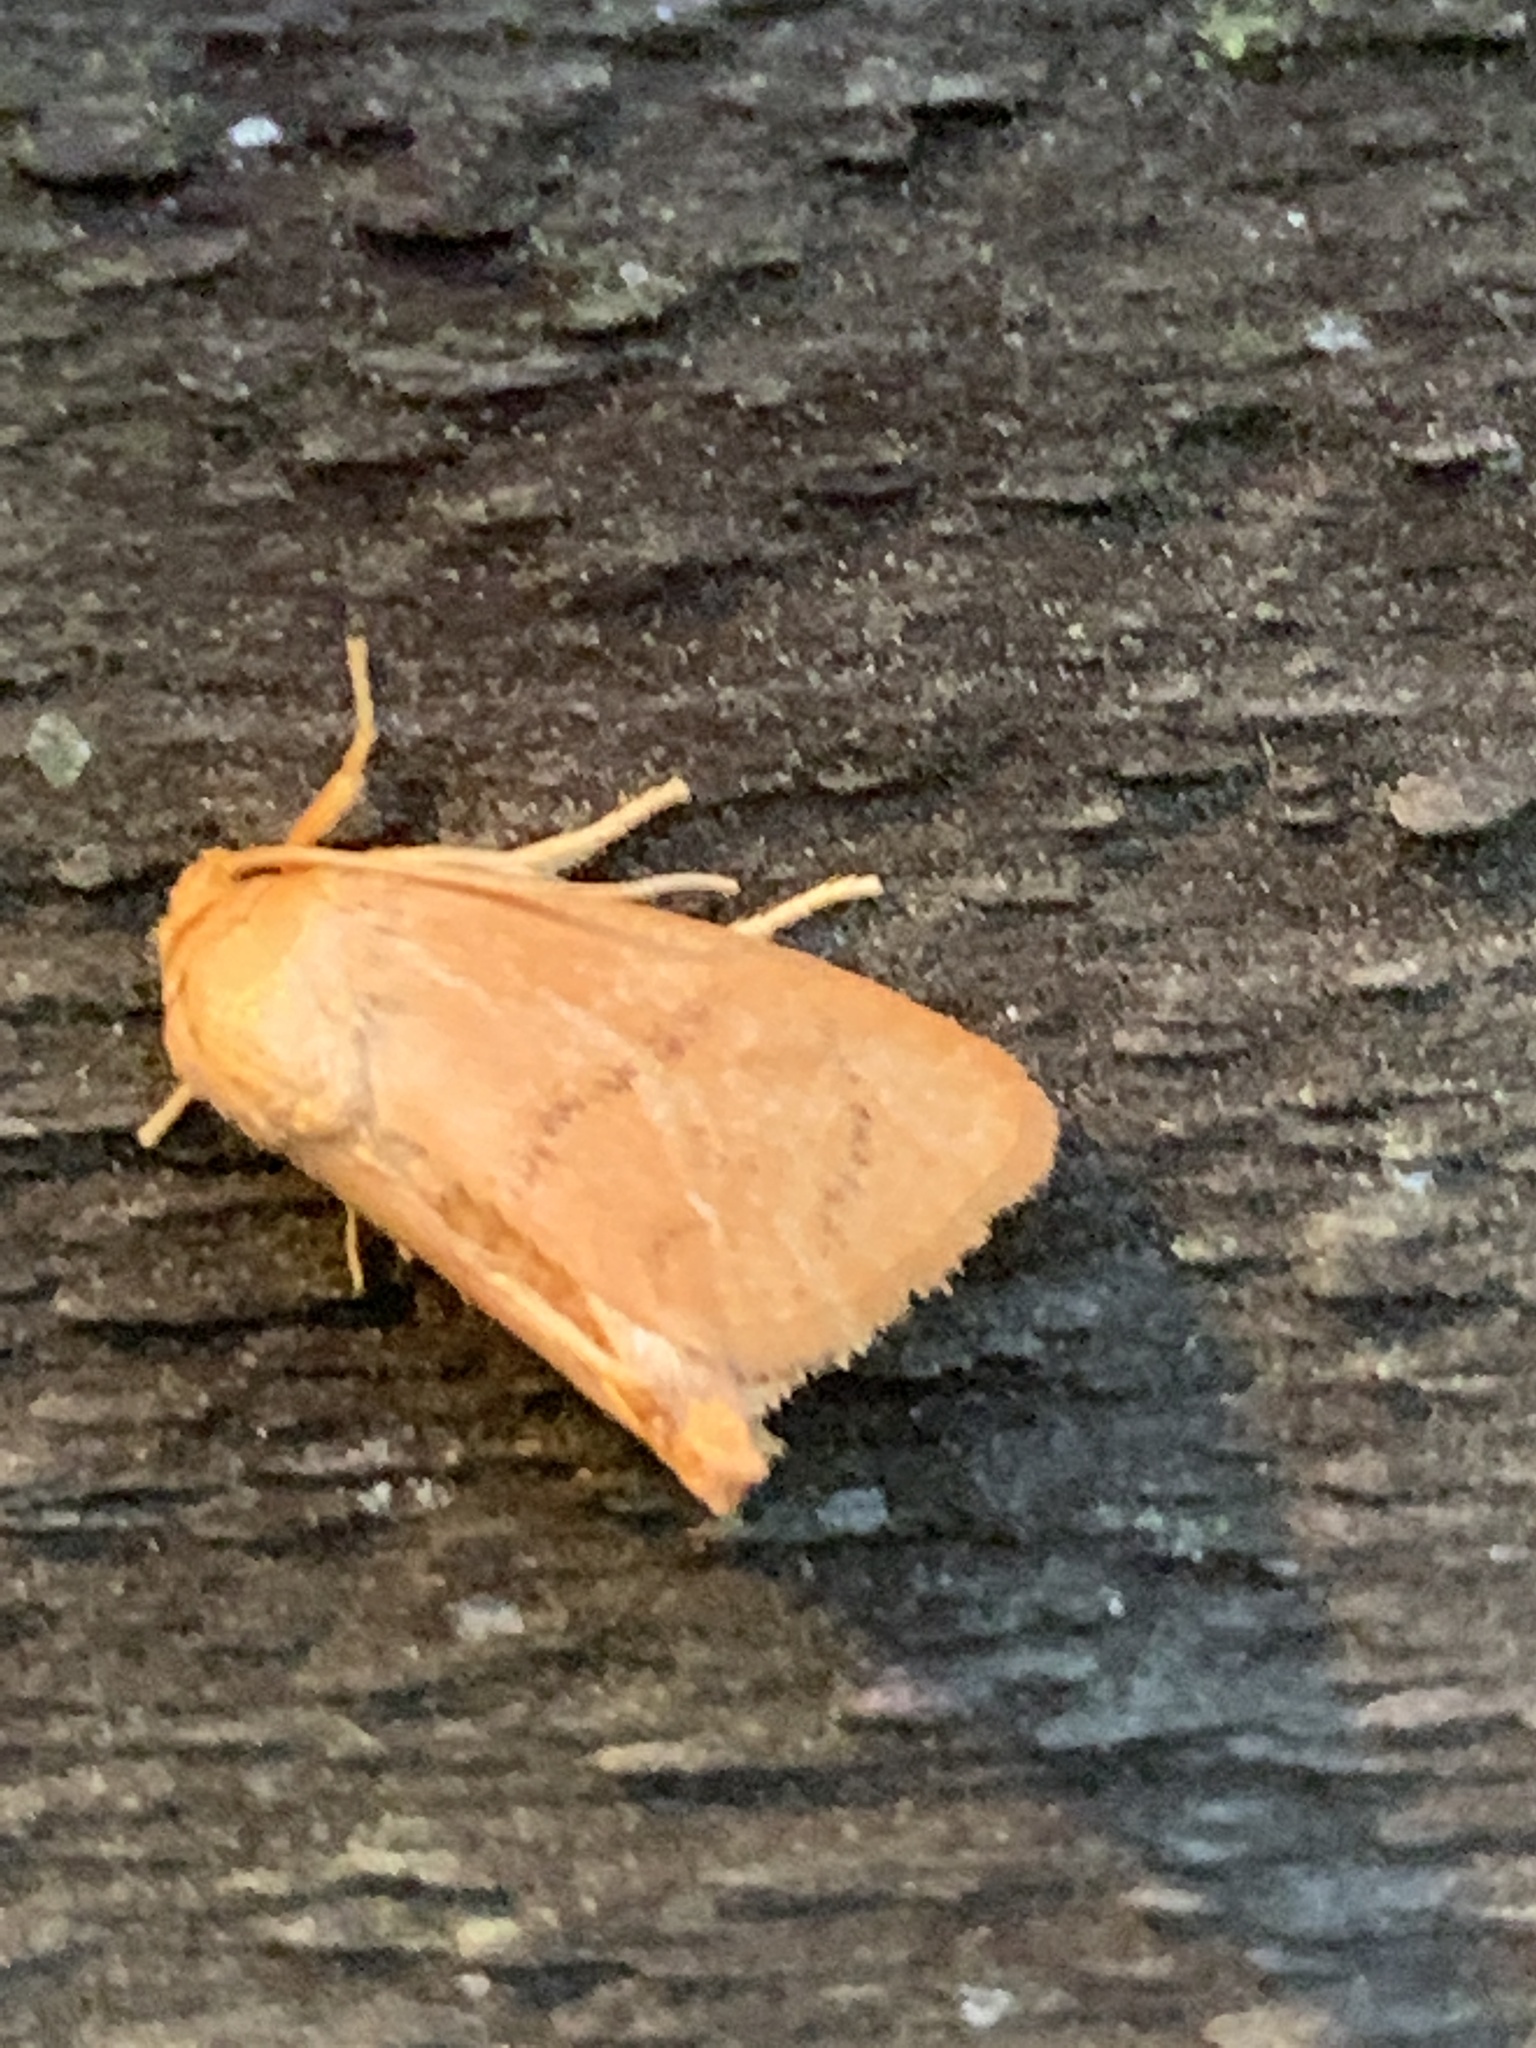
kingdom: Animalia
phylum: Arthropoda
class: Insecta
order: Lepidoptera
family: Limacodidae
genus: Tortricidia
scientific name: Tortricidia pallida
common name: Red-crossed button slug moth
